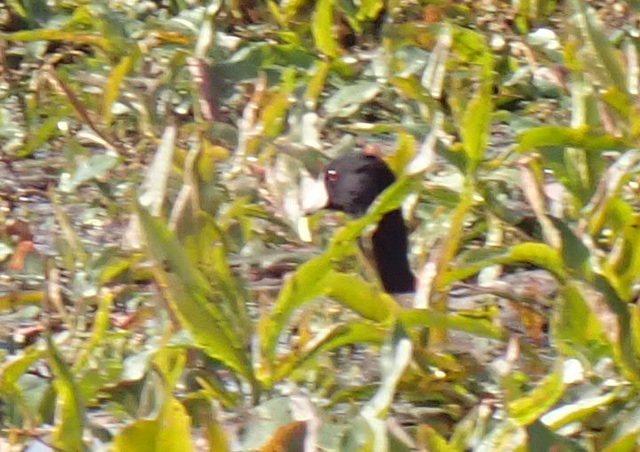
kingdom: Animalia
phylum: Chordata
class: Aves
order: Gruiformes
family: Rallidae
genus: Fulica
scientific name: Fulica americana
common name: American coot
